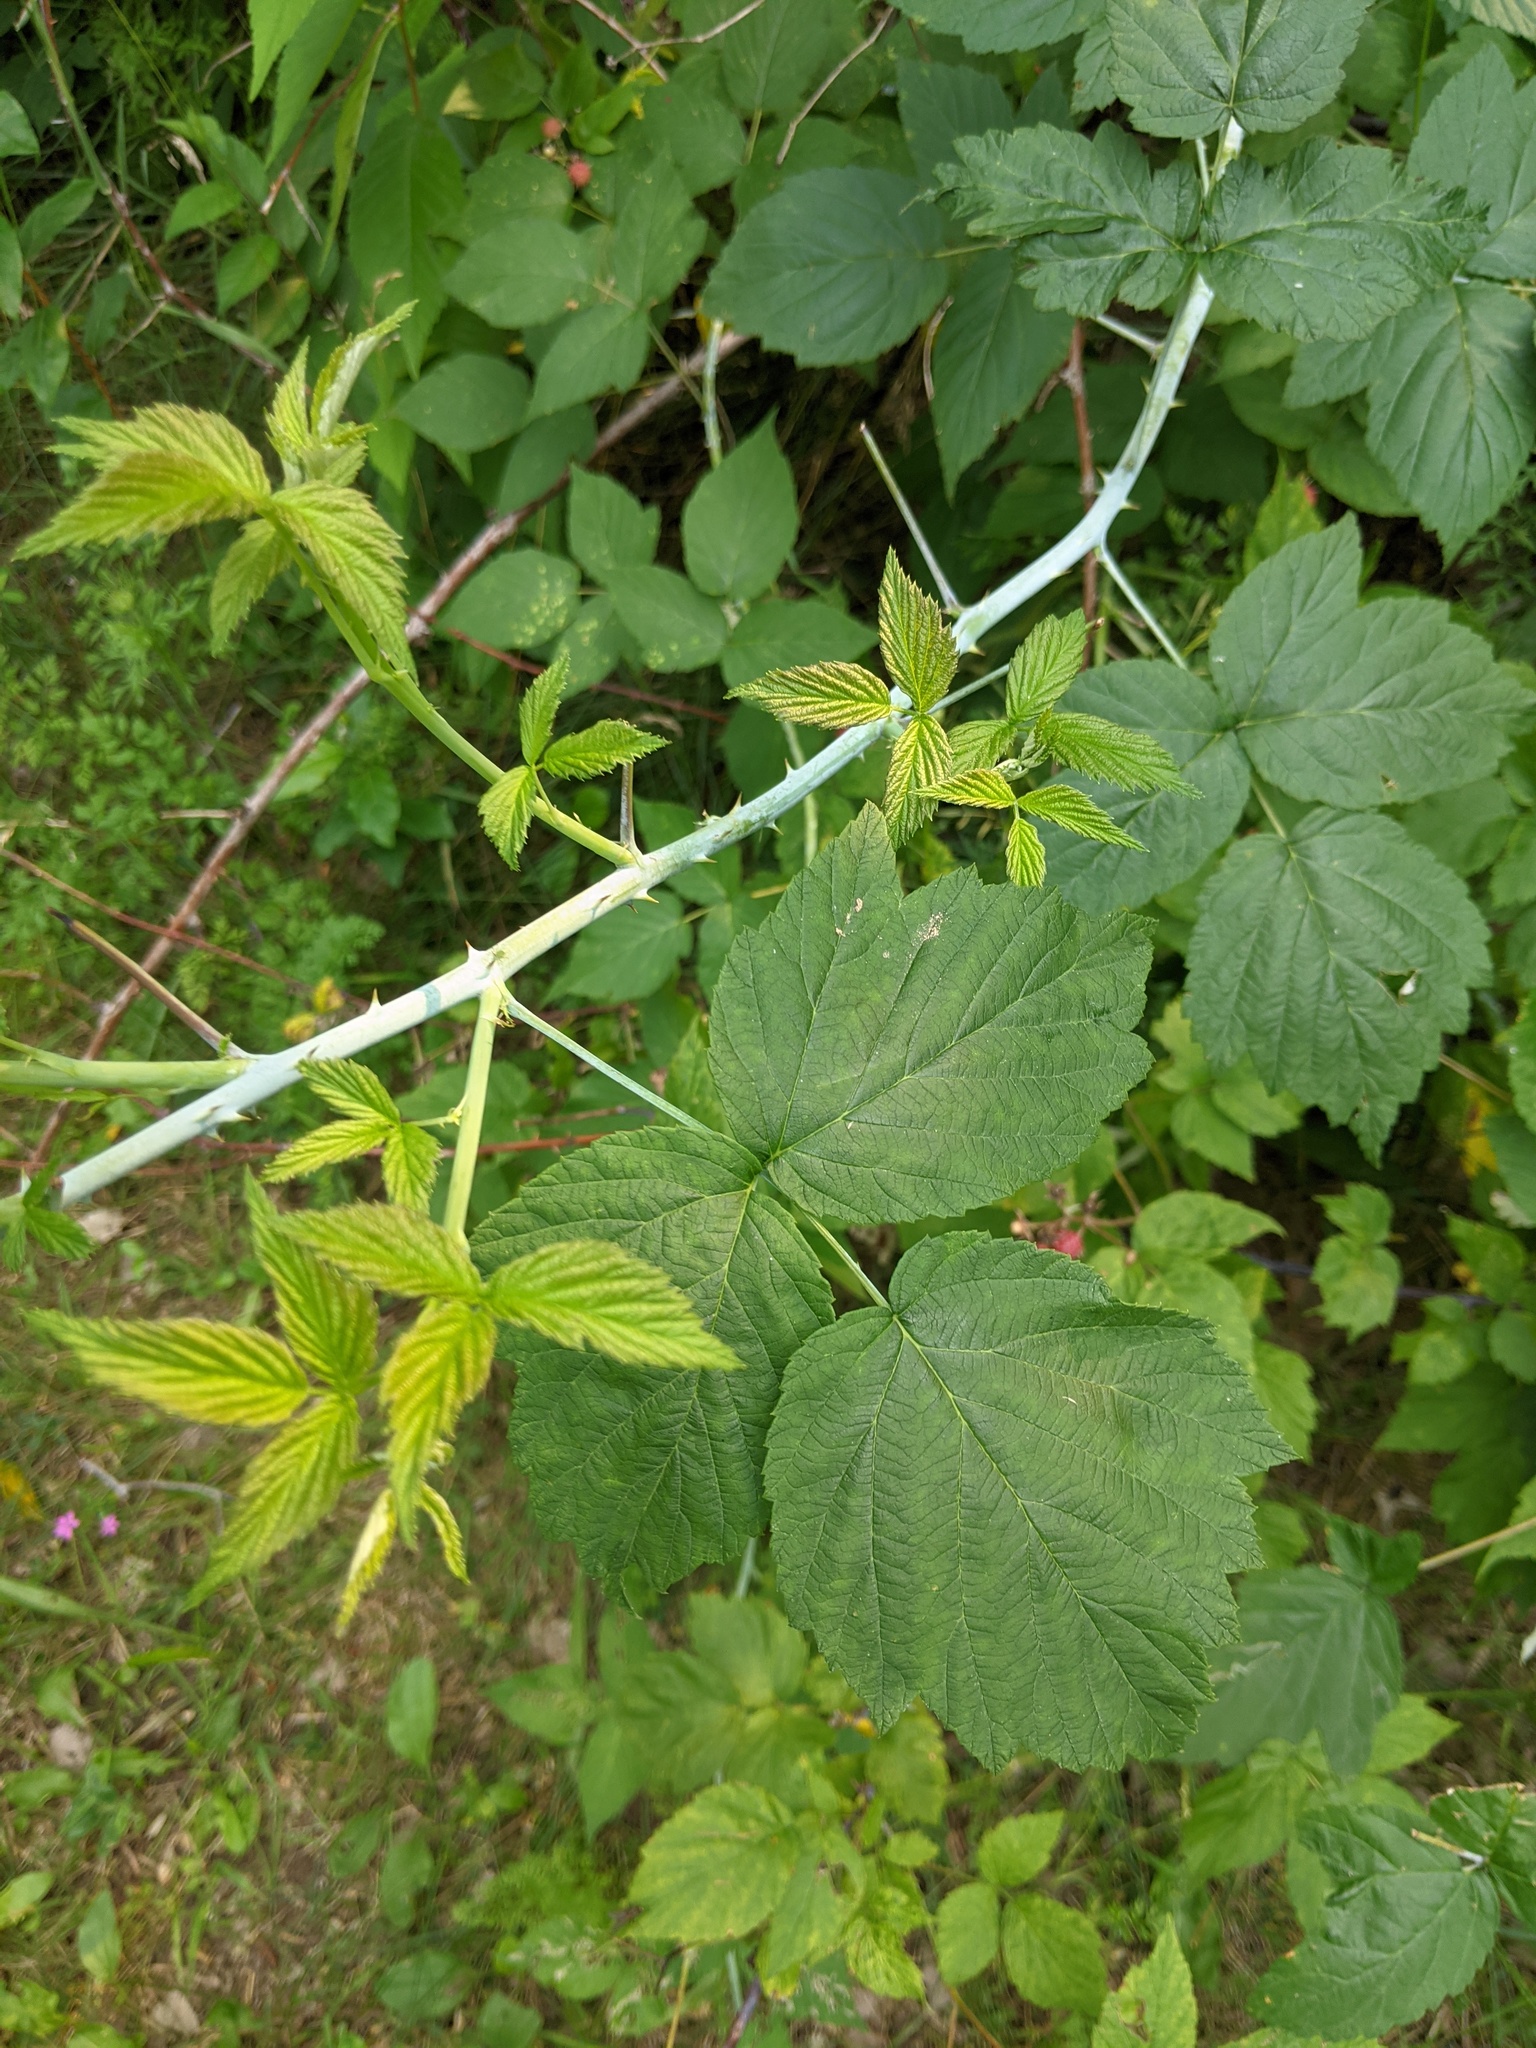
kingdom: Plantae
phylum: Tracheophyta
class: Magnoliopsida
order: Rosales
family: Rosaceae
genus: Rubus
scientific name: Rubus occidentalis
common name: Black raspberry
